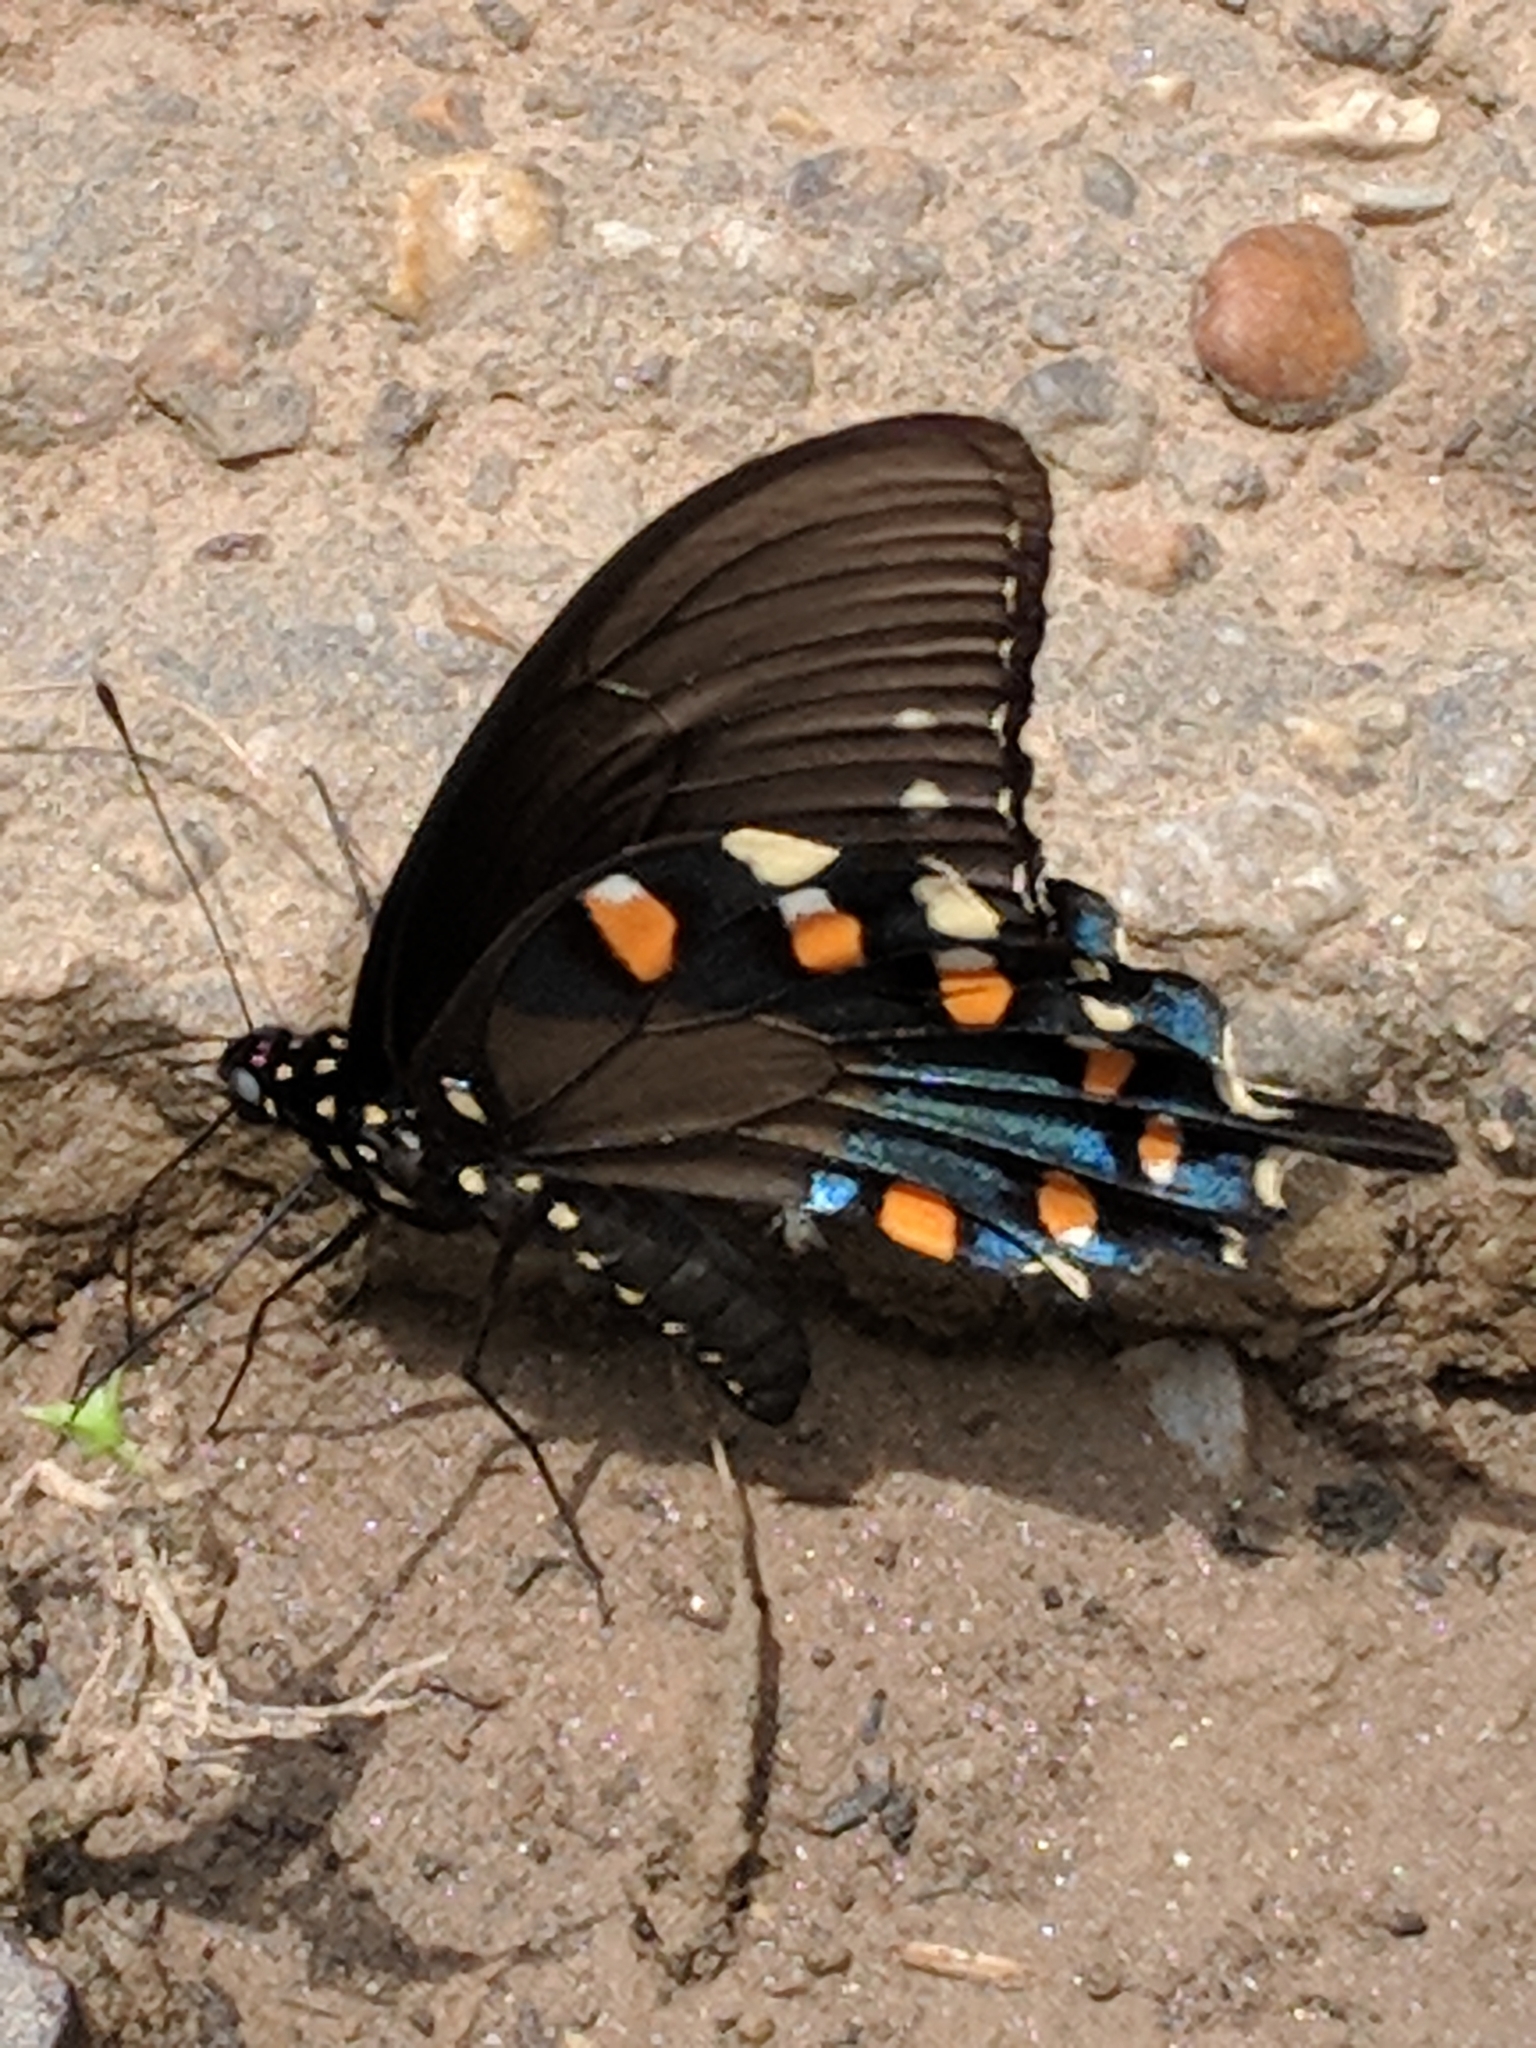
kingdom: Animalia
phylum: Arthropoda
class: Insecta
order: Lepidoptera
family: Papilionidae
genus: Battus
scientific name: Battus philenor
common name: Pipevine swallowtail
